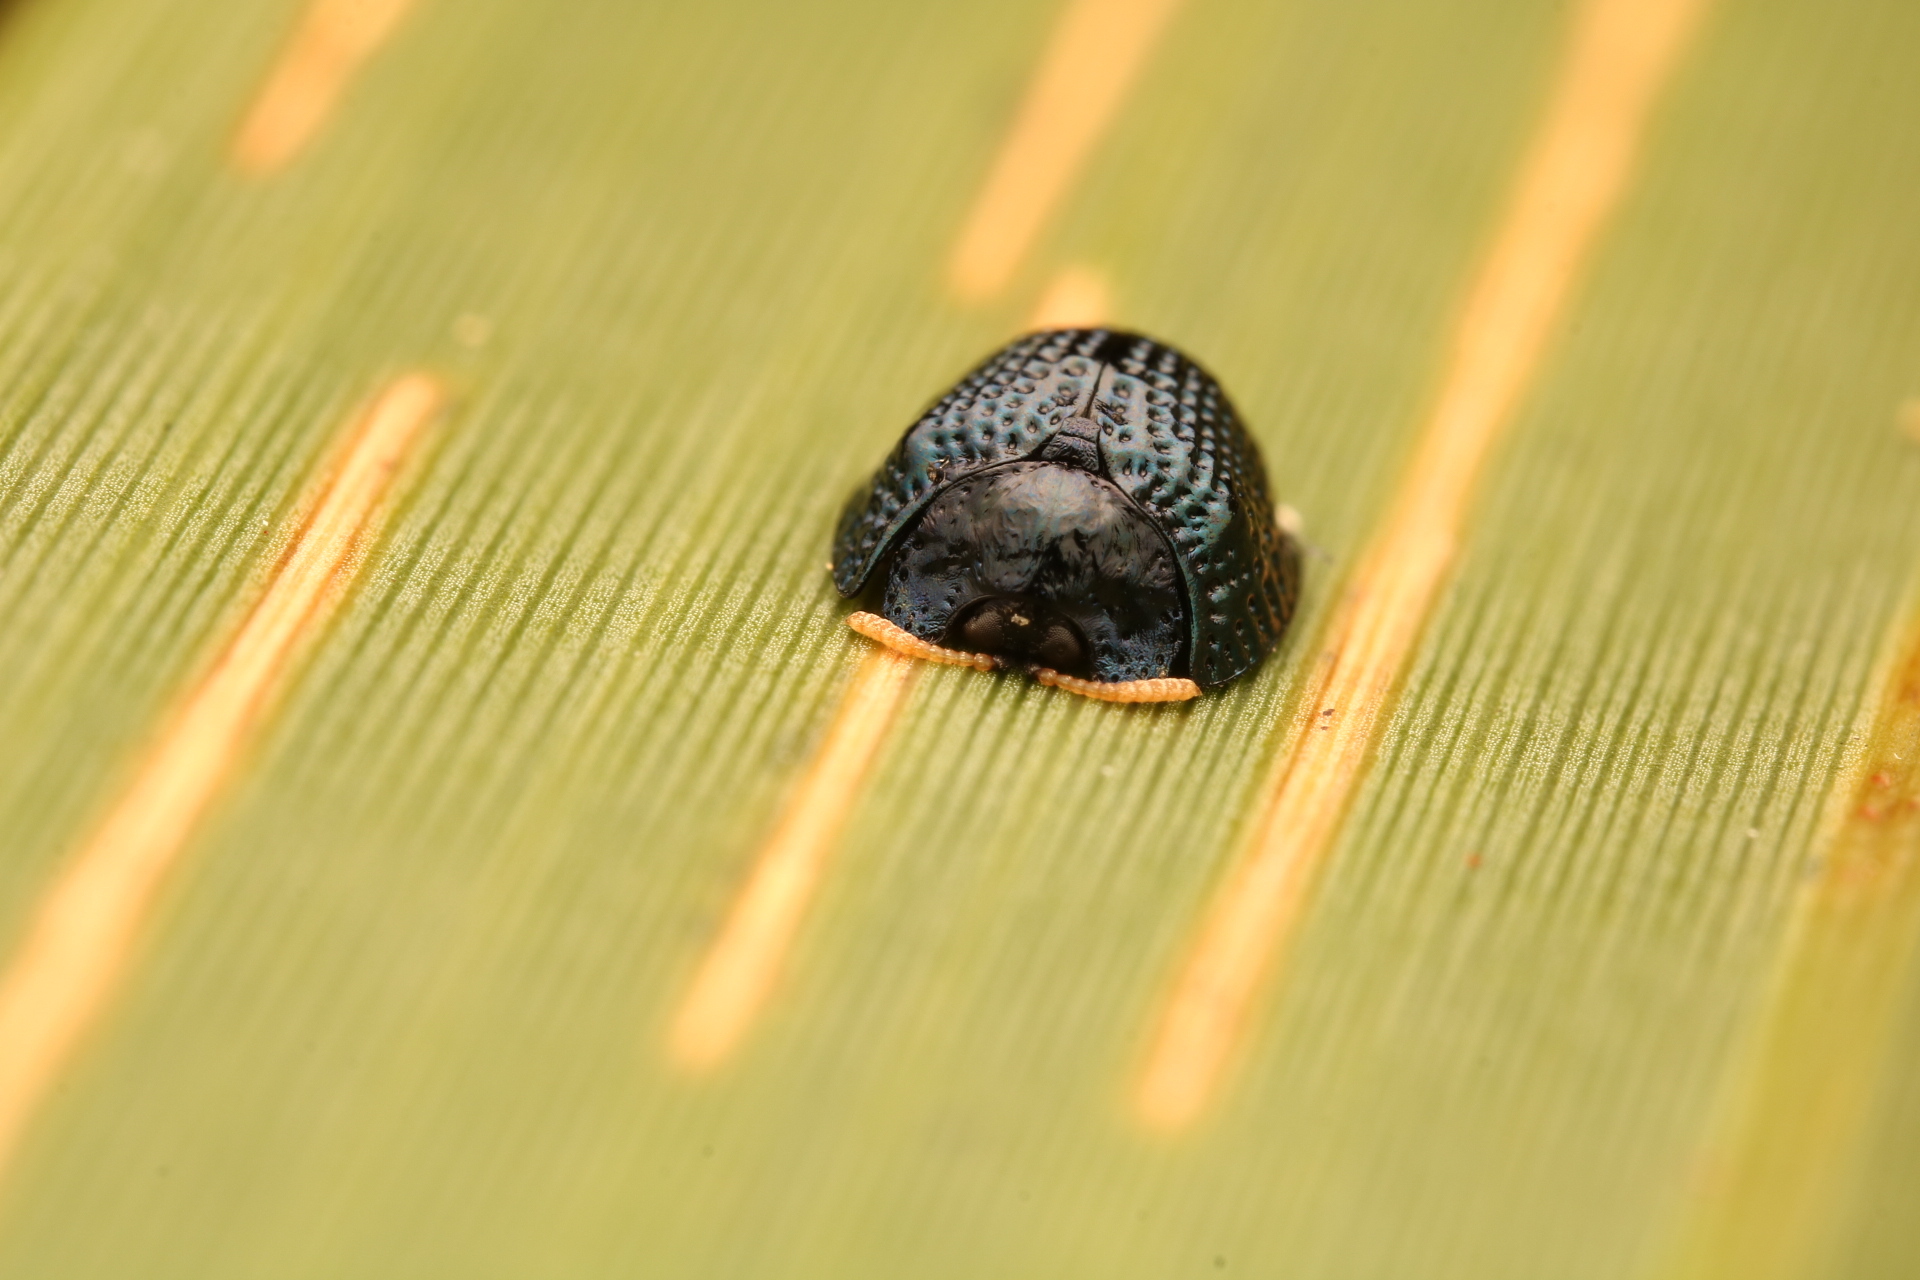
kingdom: Animalia
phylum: Arthropoda
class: Insecta
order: Coleoptera
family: Chrysomelidae
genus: Hemisphaerota
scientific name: Hemisphaerota cyanea
